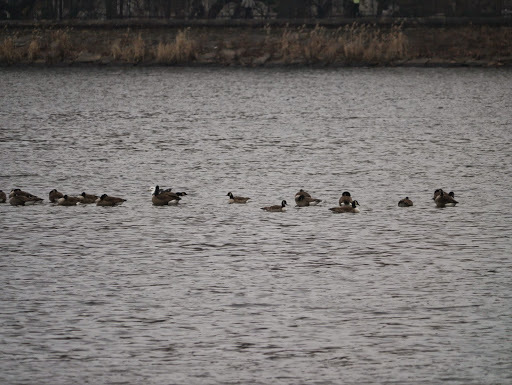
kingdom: Animalia
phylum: Chordata
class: Aves
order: Anseriformes
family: Anatidae
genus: Branta
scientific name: Branta canadensis
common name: Canada goose
